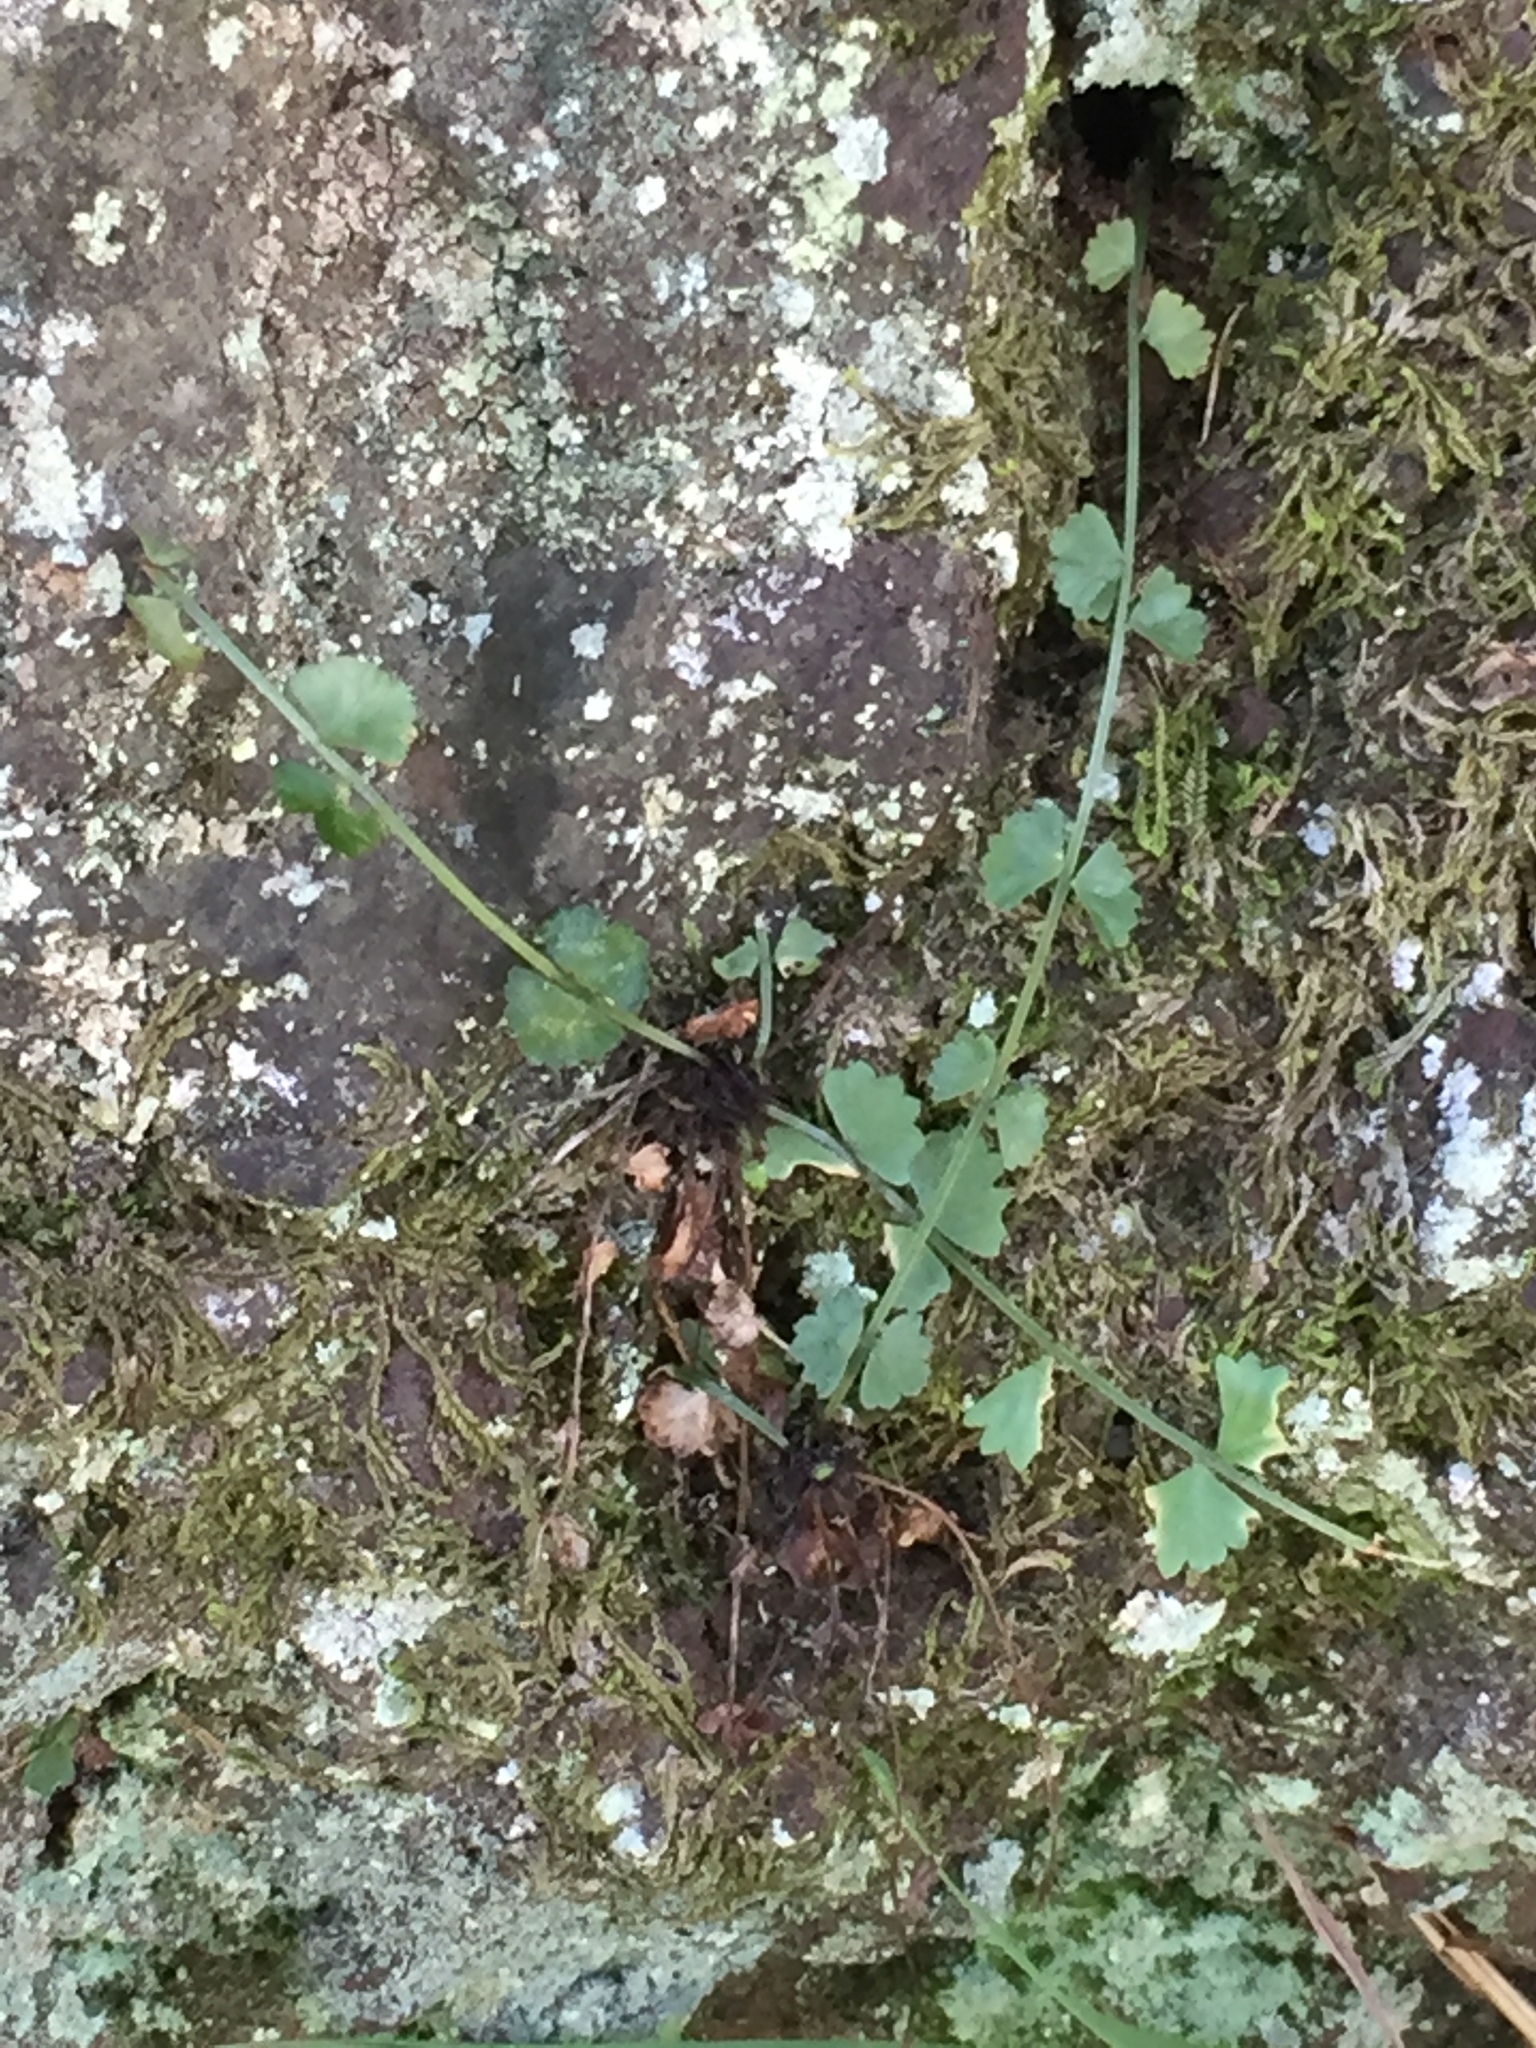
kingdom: Plantae
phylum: Tracheophyta
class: Polypodiopsida
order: Polypodiales
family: Aspleniaceae
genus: Asplenium
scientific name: Asplenium flabellifolium
